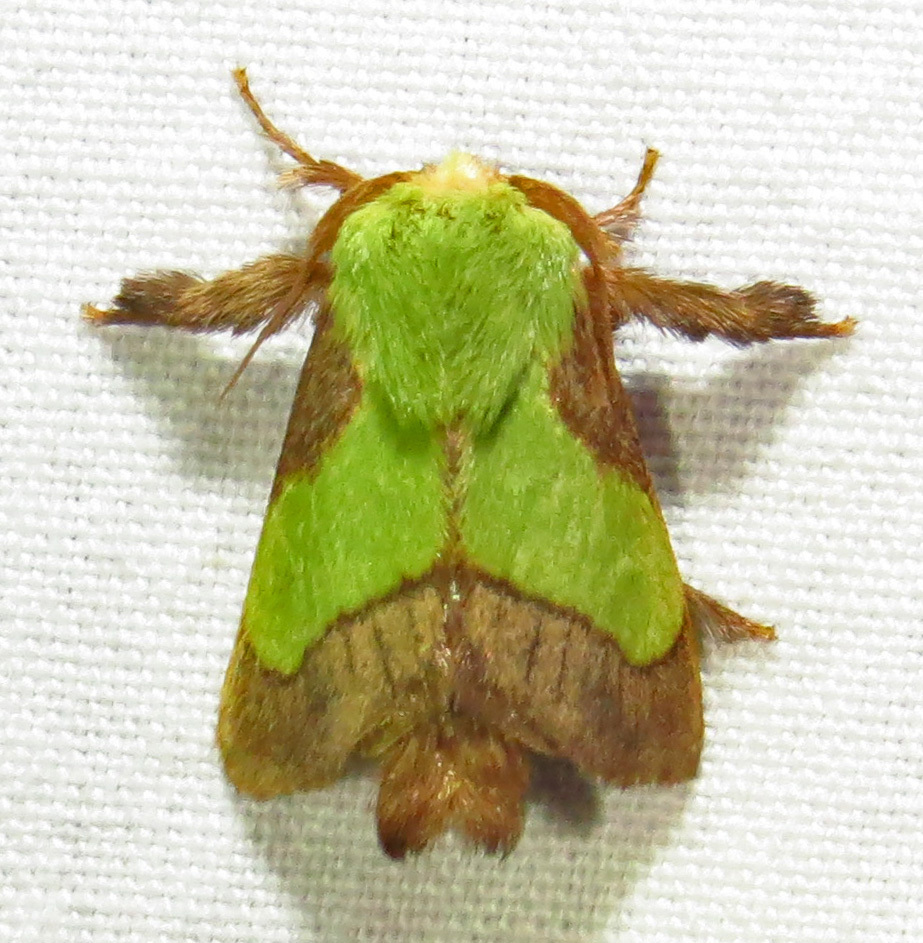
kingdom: Animalia
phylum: Arthropoda
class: Insecta
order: Lepidoptera
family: Limacodidae
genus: Parasa
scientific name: Parasa chloris
